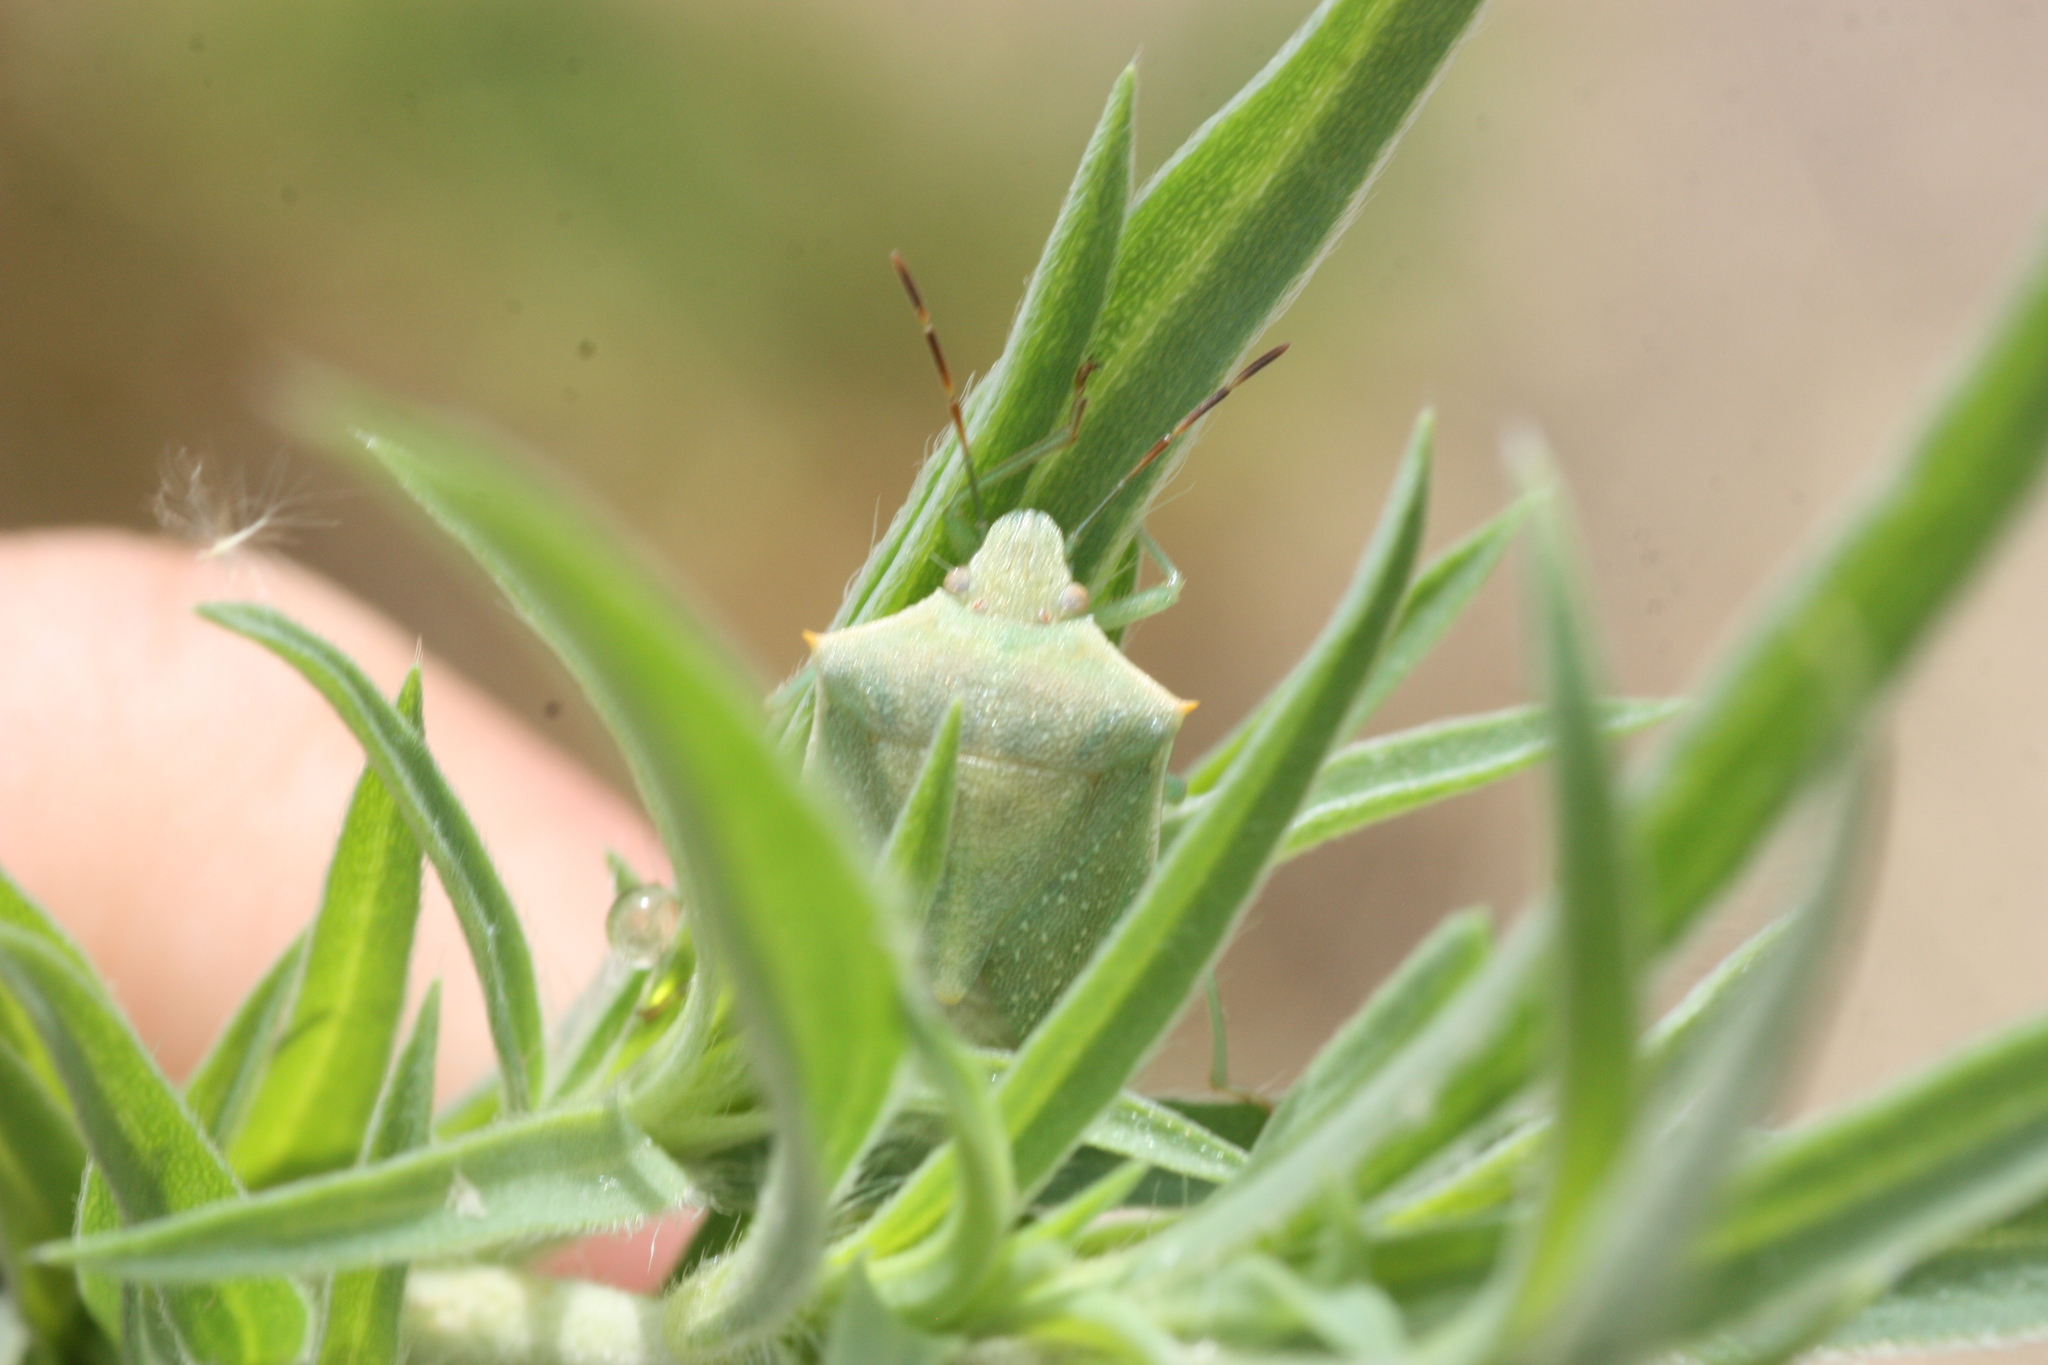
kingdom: Animalia
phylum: Arthropoda
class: Insecta
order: Hemiptera
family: Pentatomidae
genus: Thyanta
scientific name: Thyanta accerra
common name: Stink bug
